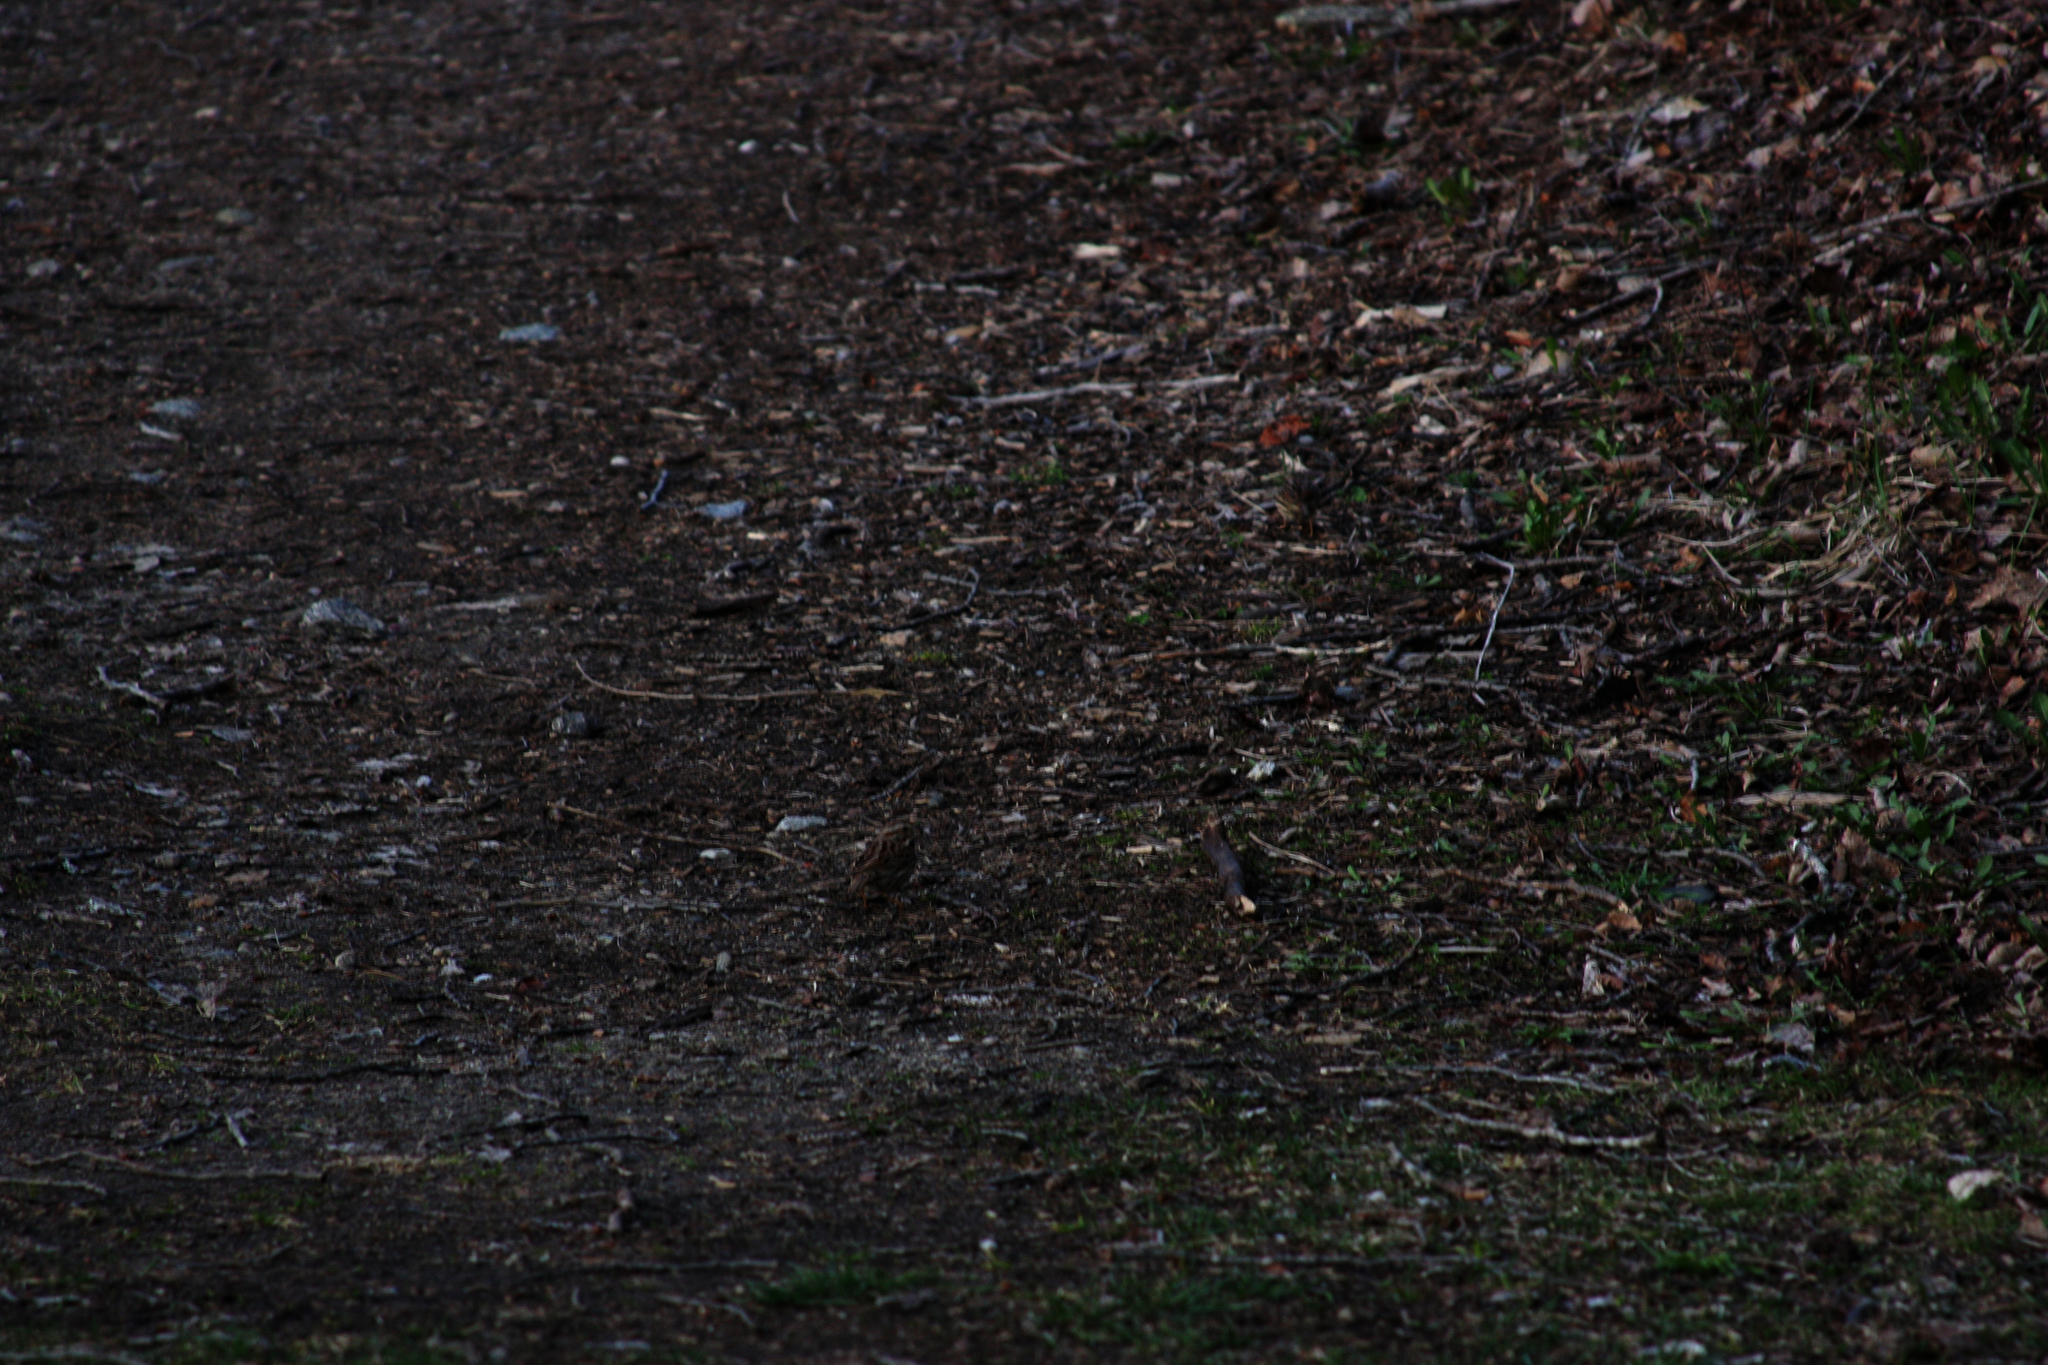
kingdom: Animalia
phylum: Chordata
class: Aves
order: Passeriformes
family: Passerellidae
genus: Melospiza
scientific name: Melospiza melodia
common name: Song sparrow
